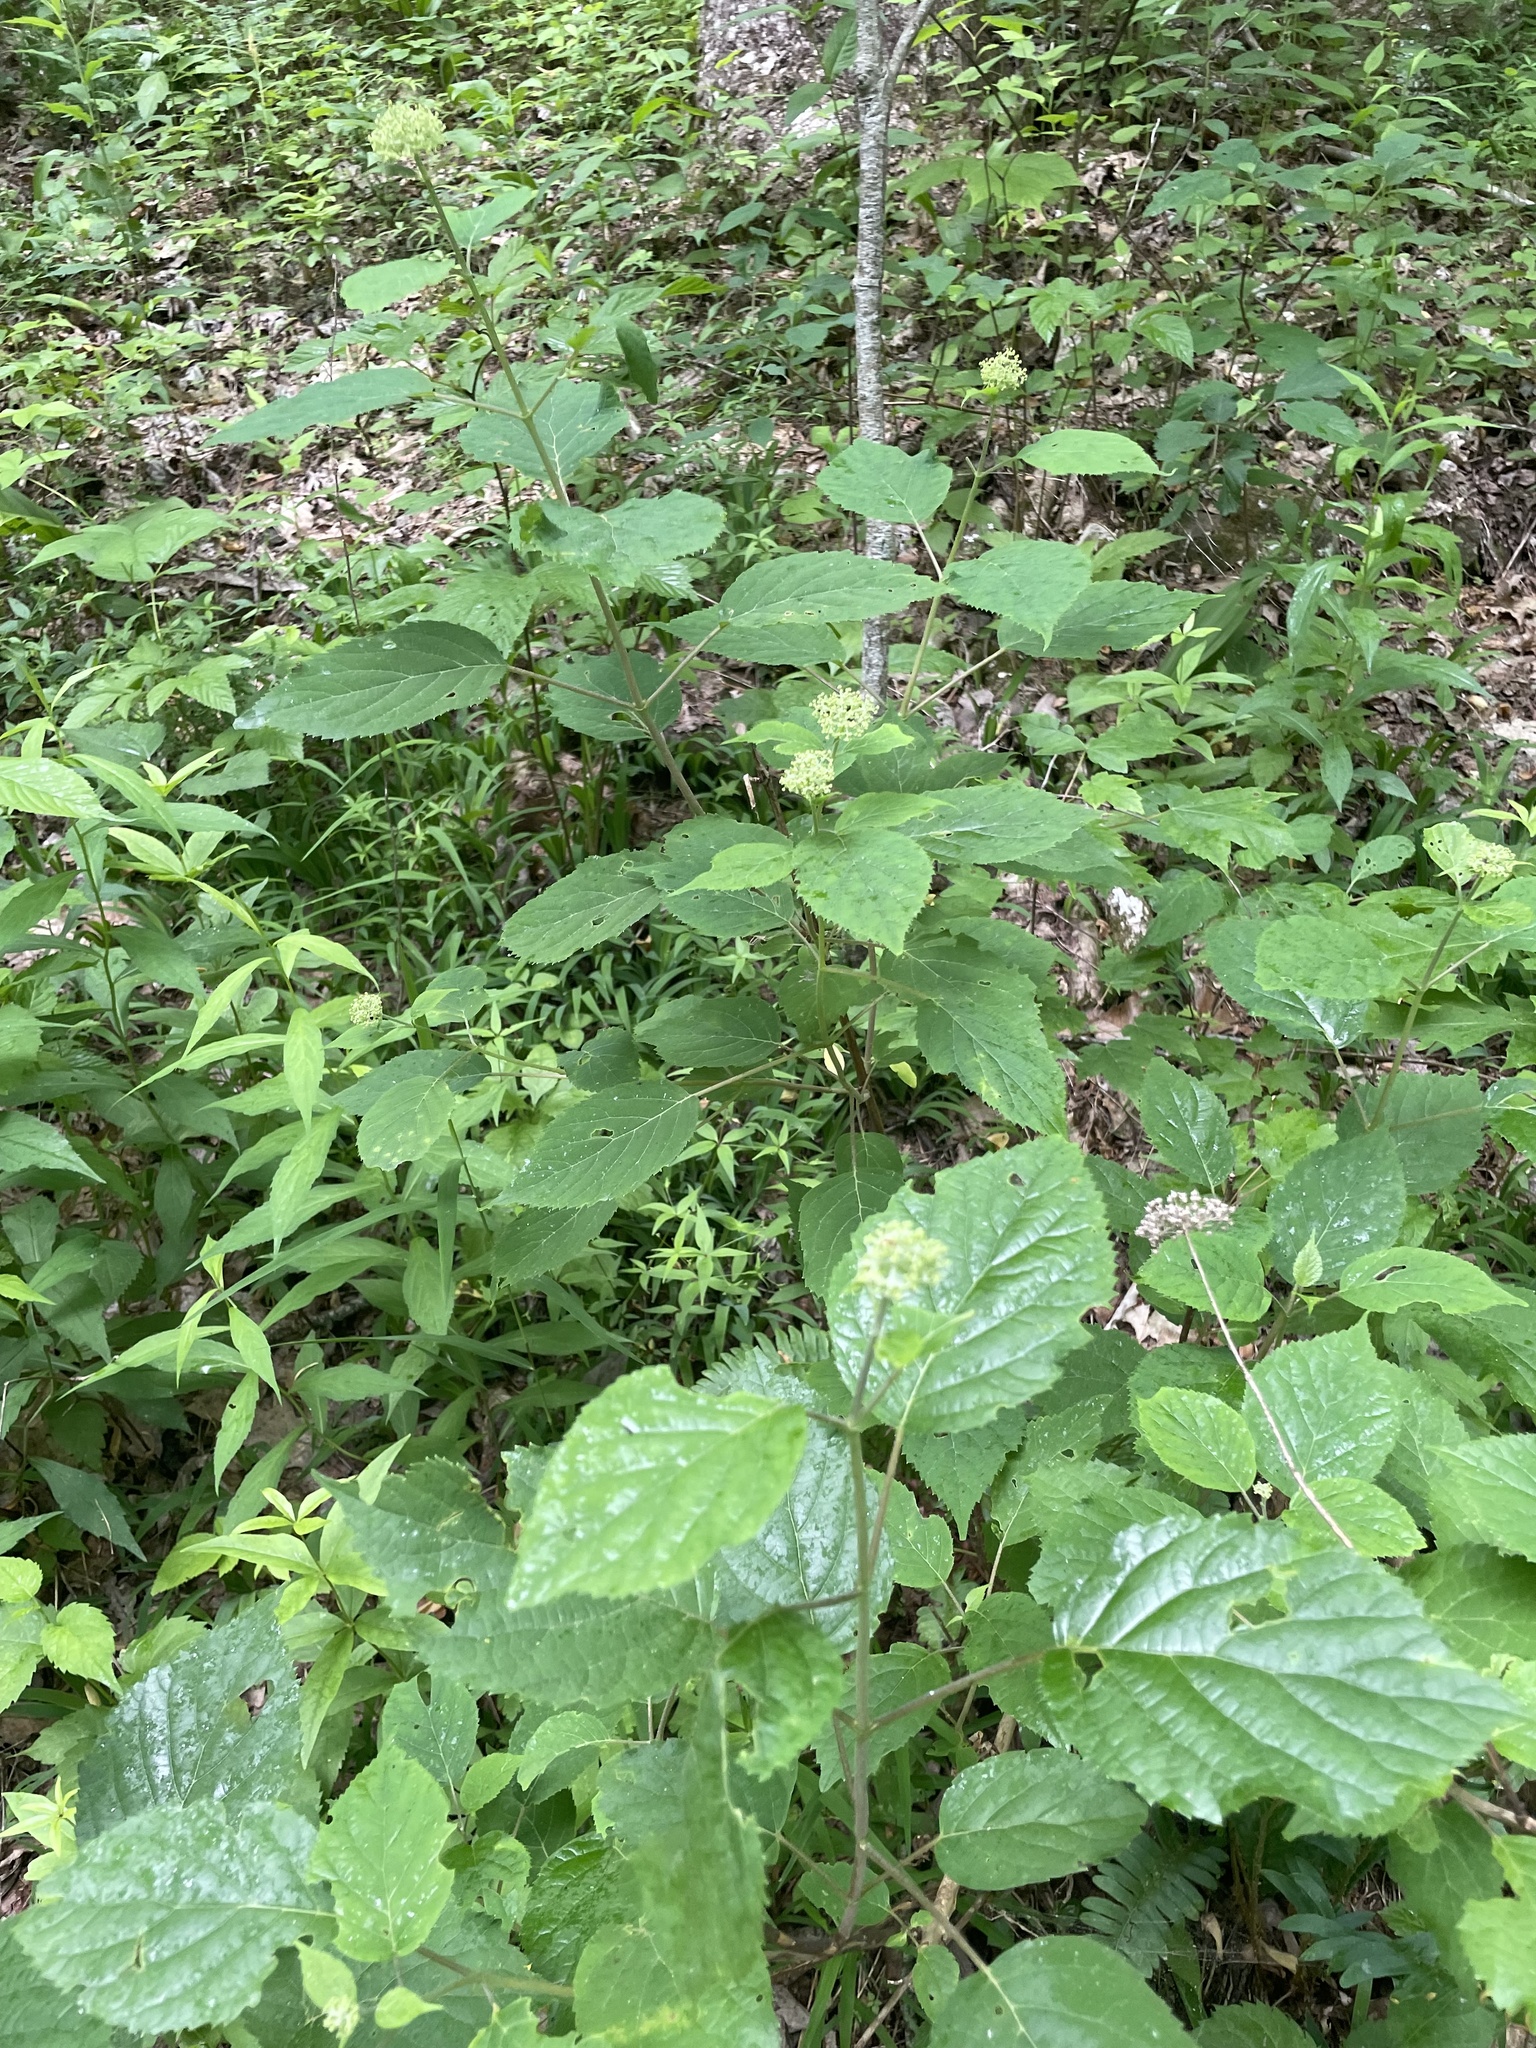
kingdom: Plantae
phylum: Tracheophyta
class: Magnoliopsida
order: Cornales
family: Hydrangeaceae
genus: Hydrangea
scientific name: Hydrangea arborescens
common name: Sevenbark
